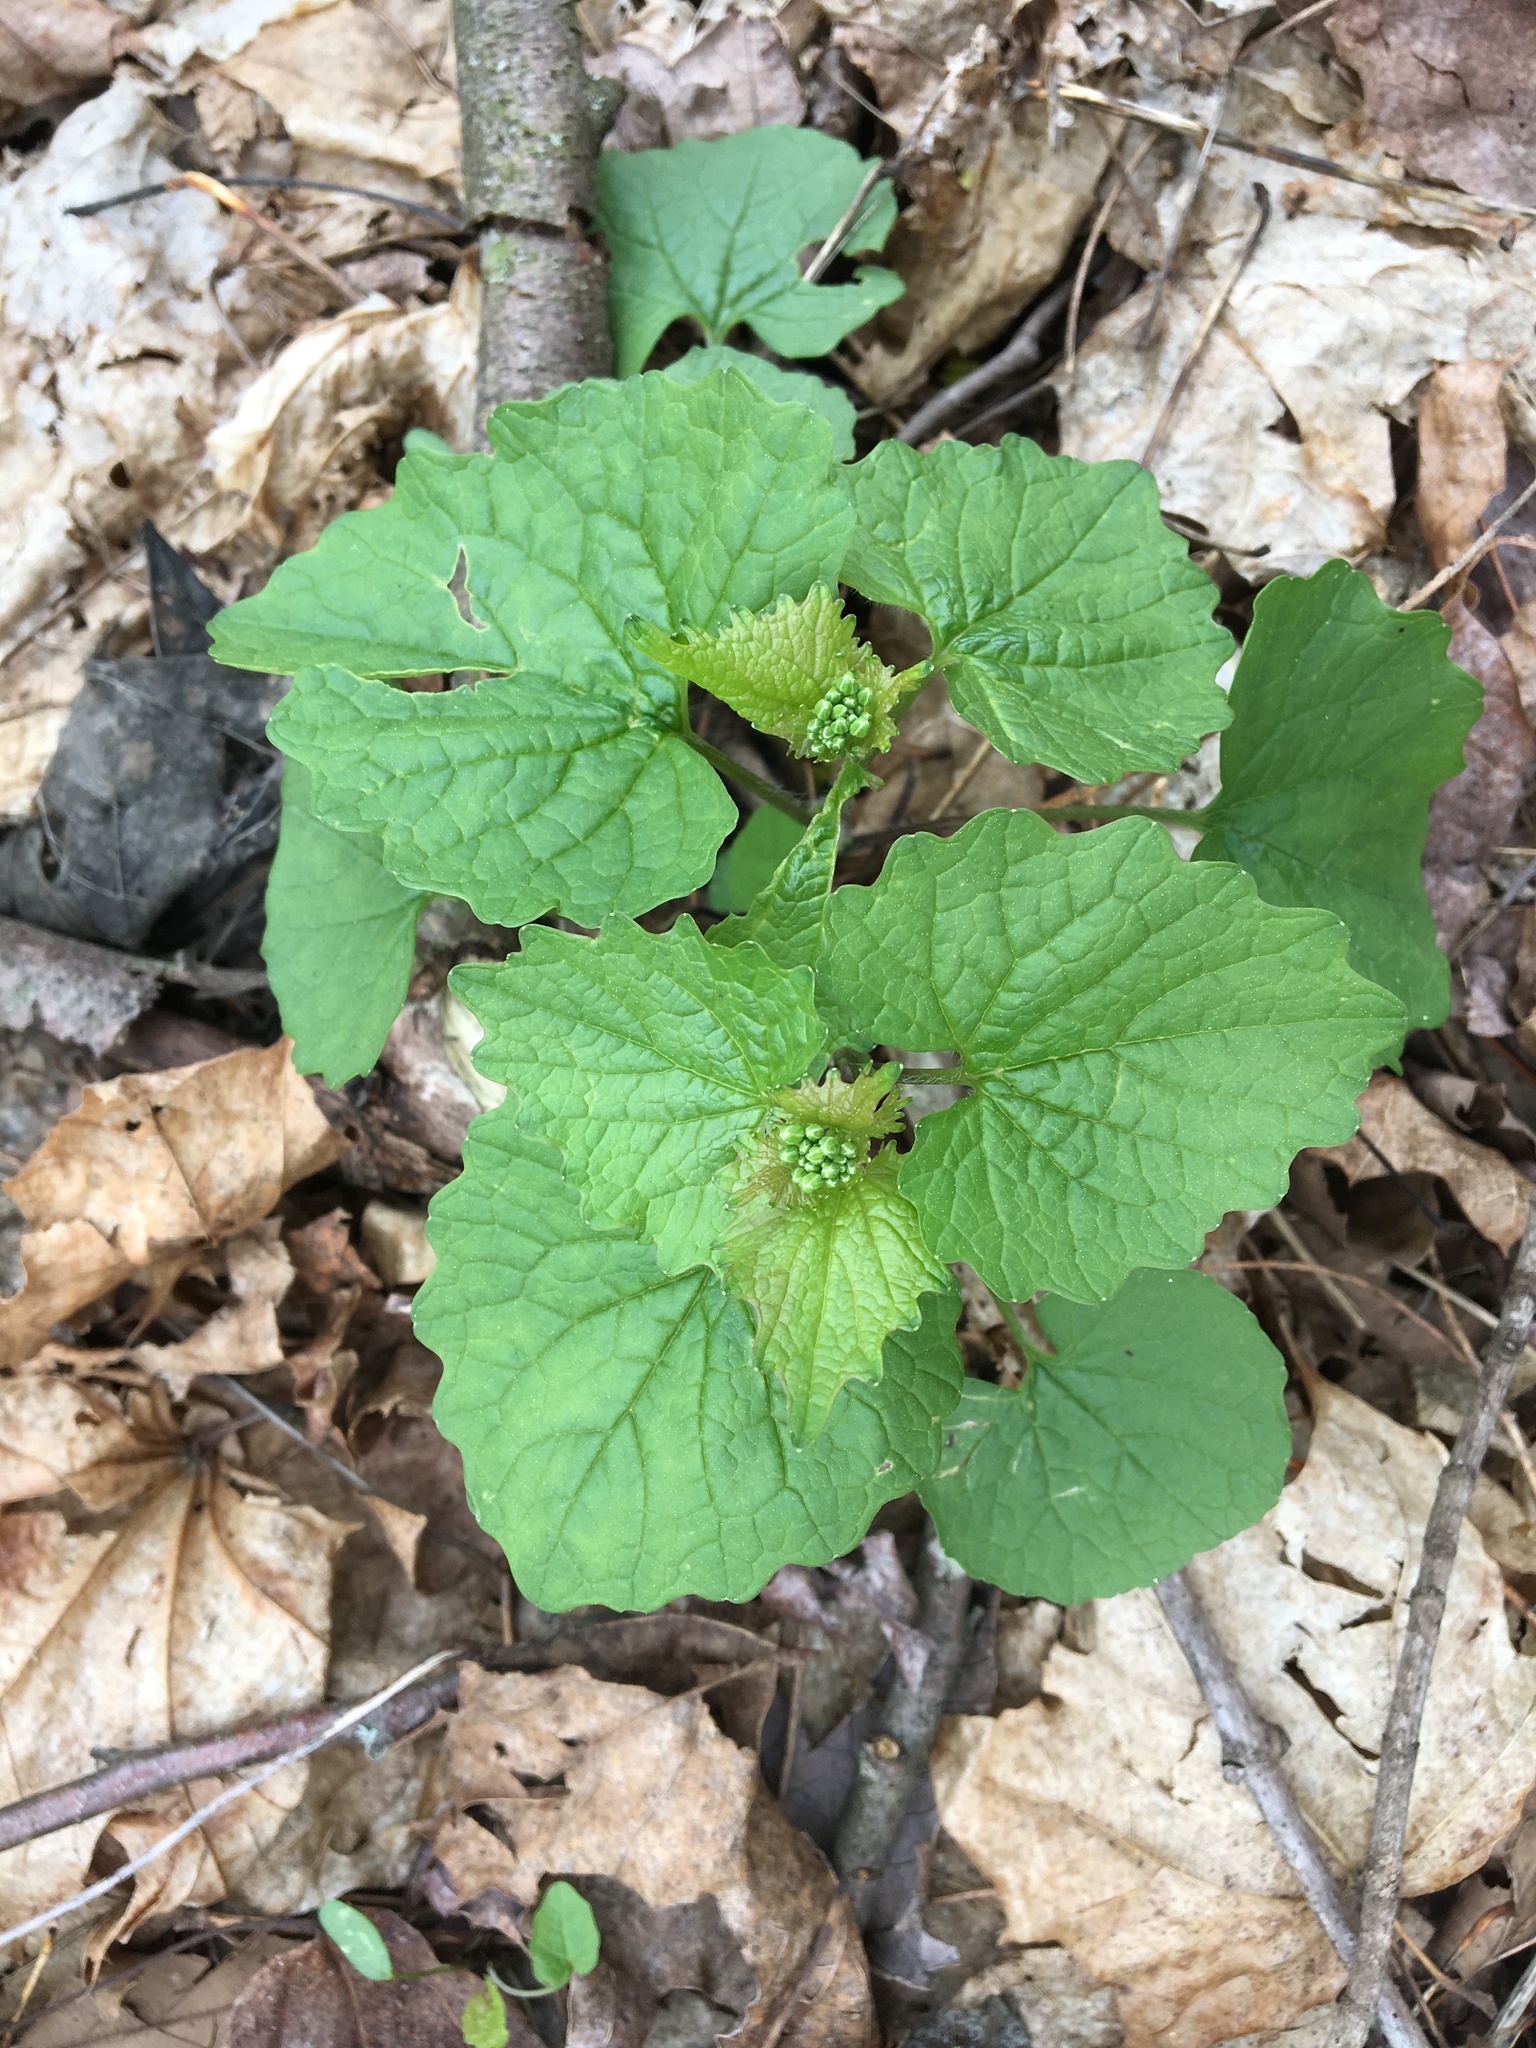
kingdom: Plantae
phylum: Tracheophyta
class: Magnoliopsida
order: Brassicales
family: Brassicaceae
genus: Alliaria
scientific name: Alliaria petiolata
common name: Garlic mustard
